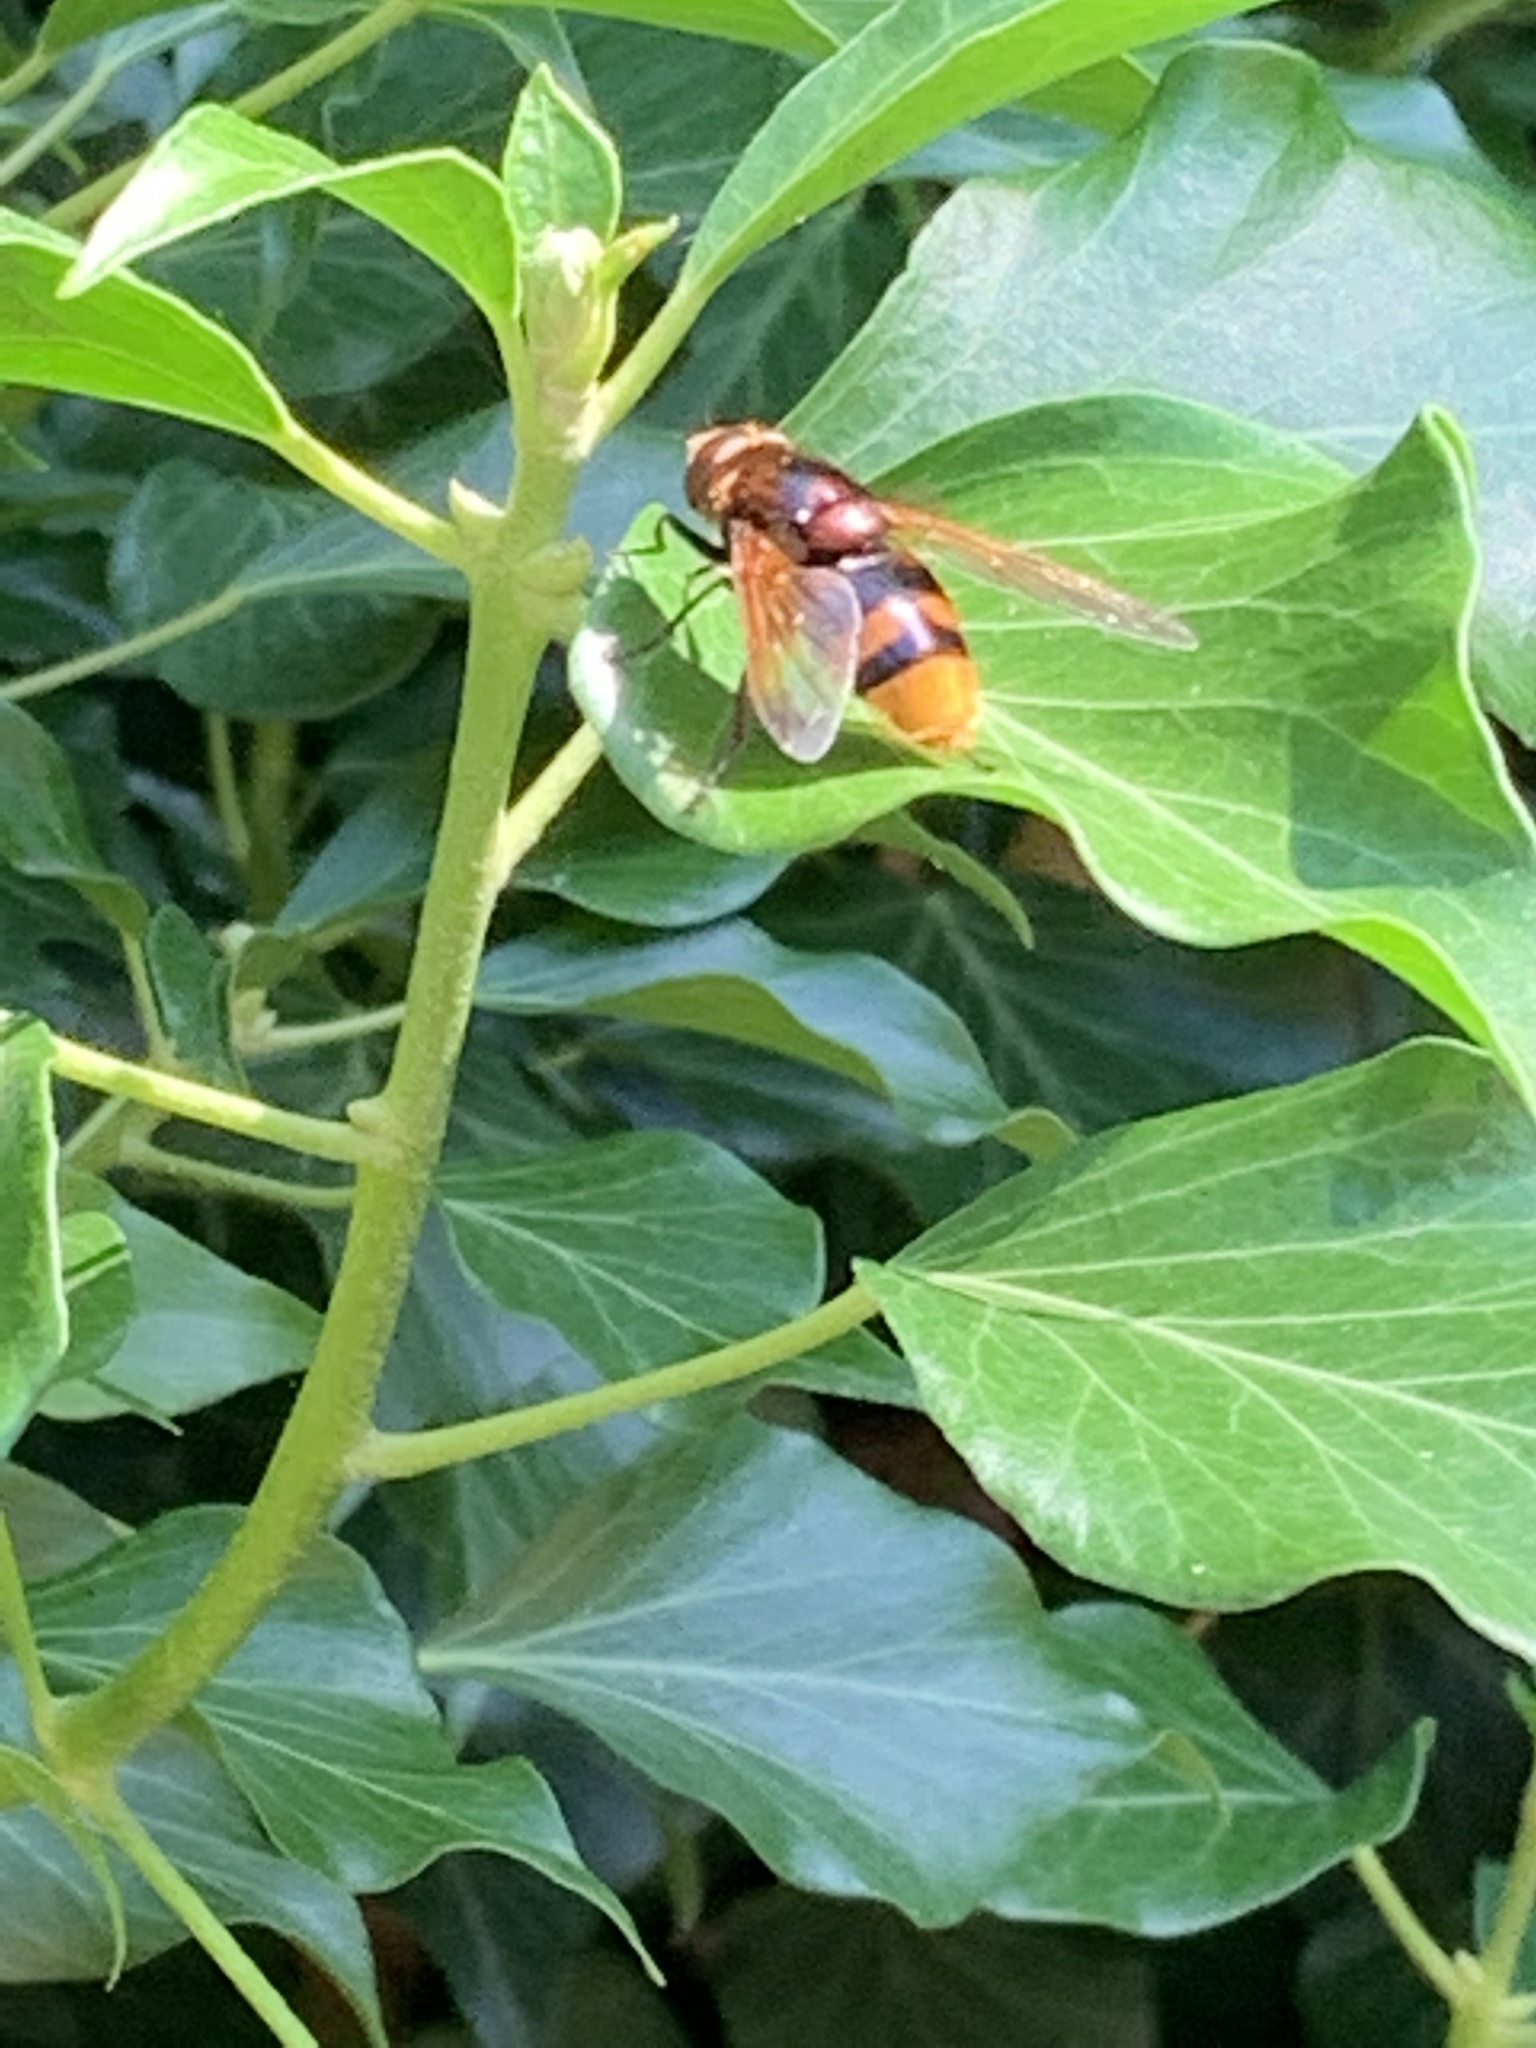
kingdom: Animalia
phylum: Arthropoda
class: Insecta
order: Diptera
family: Syrphidae
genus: Volucella
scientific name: Volucella zonaria
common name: Hornet hoverfly
